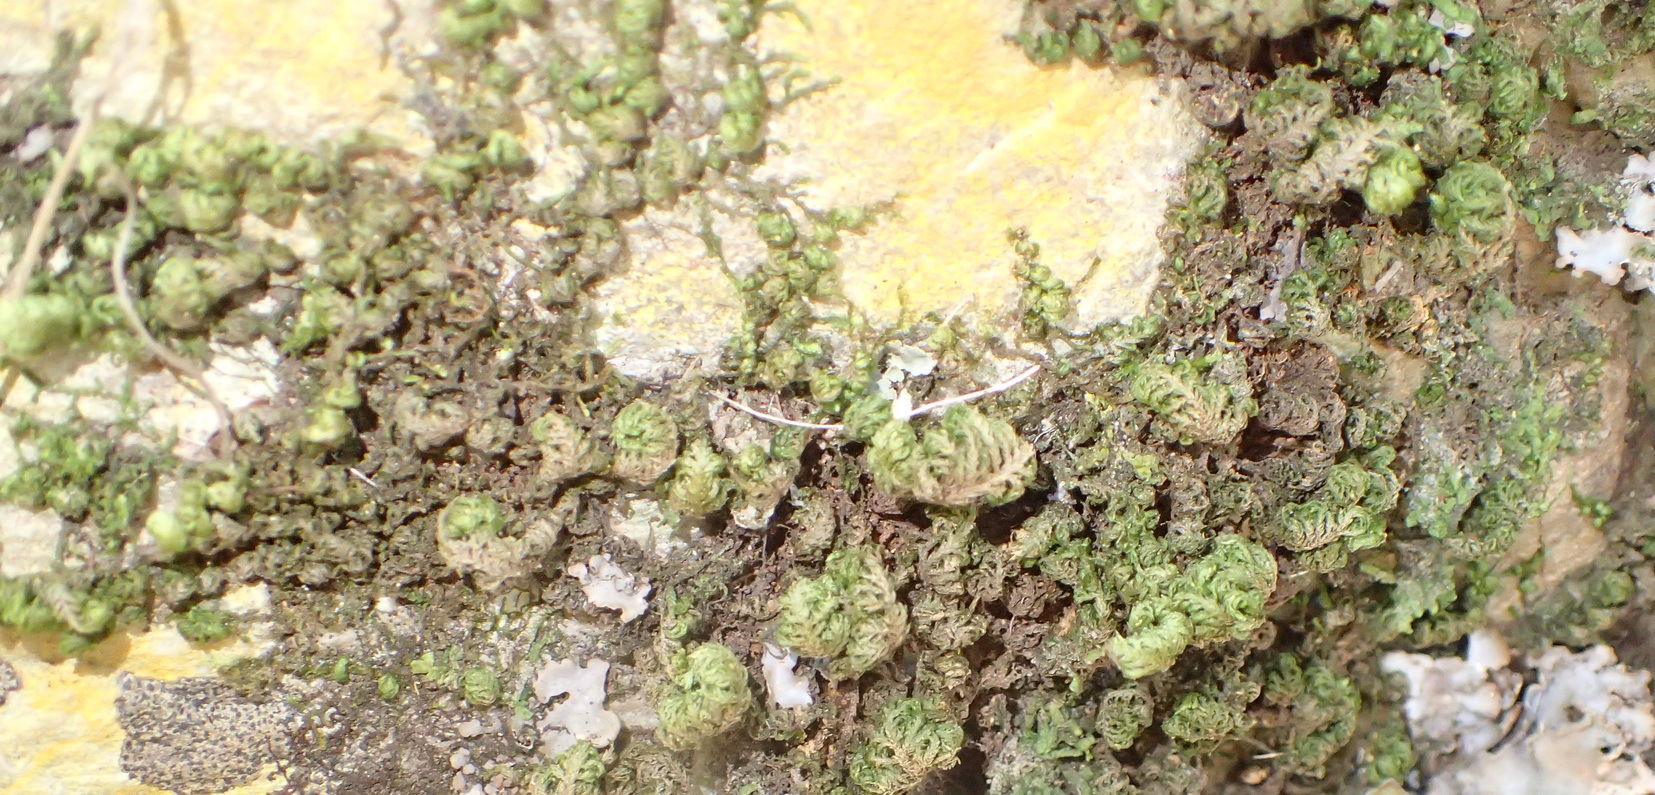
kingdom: Plantae
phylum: Bryophyta
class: Bryopsida
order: Hypnales
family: Neckeraceae
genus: Leptodon
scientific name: Leptodon smithii
